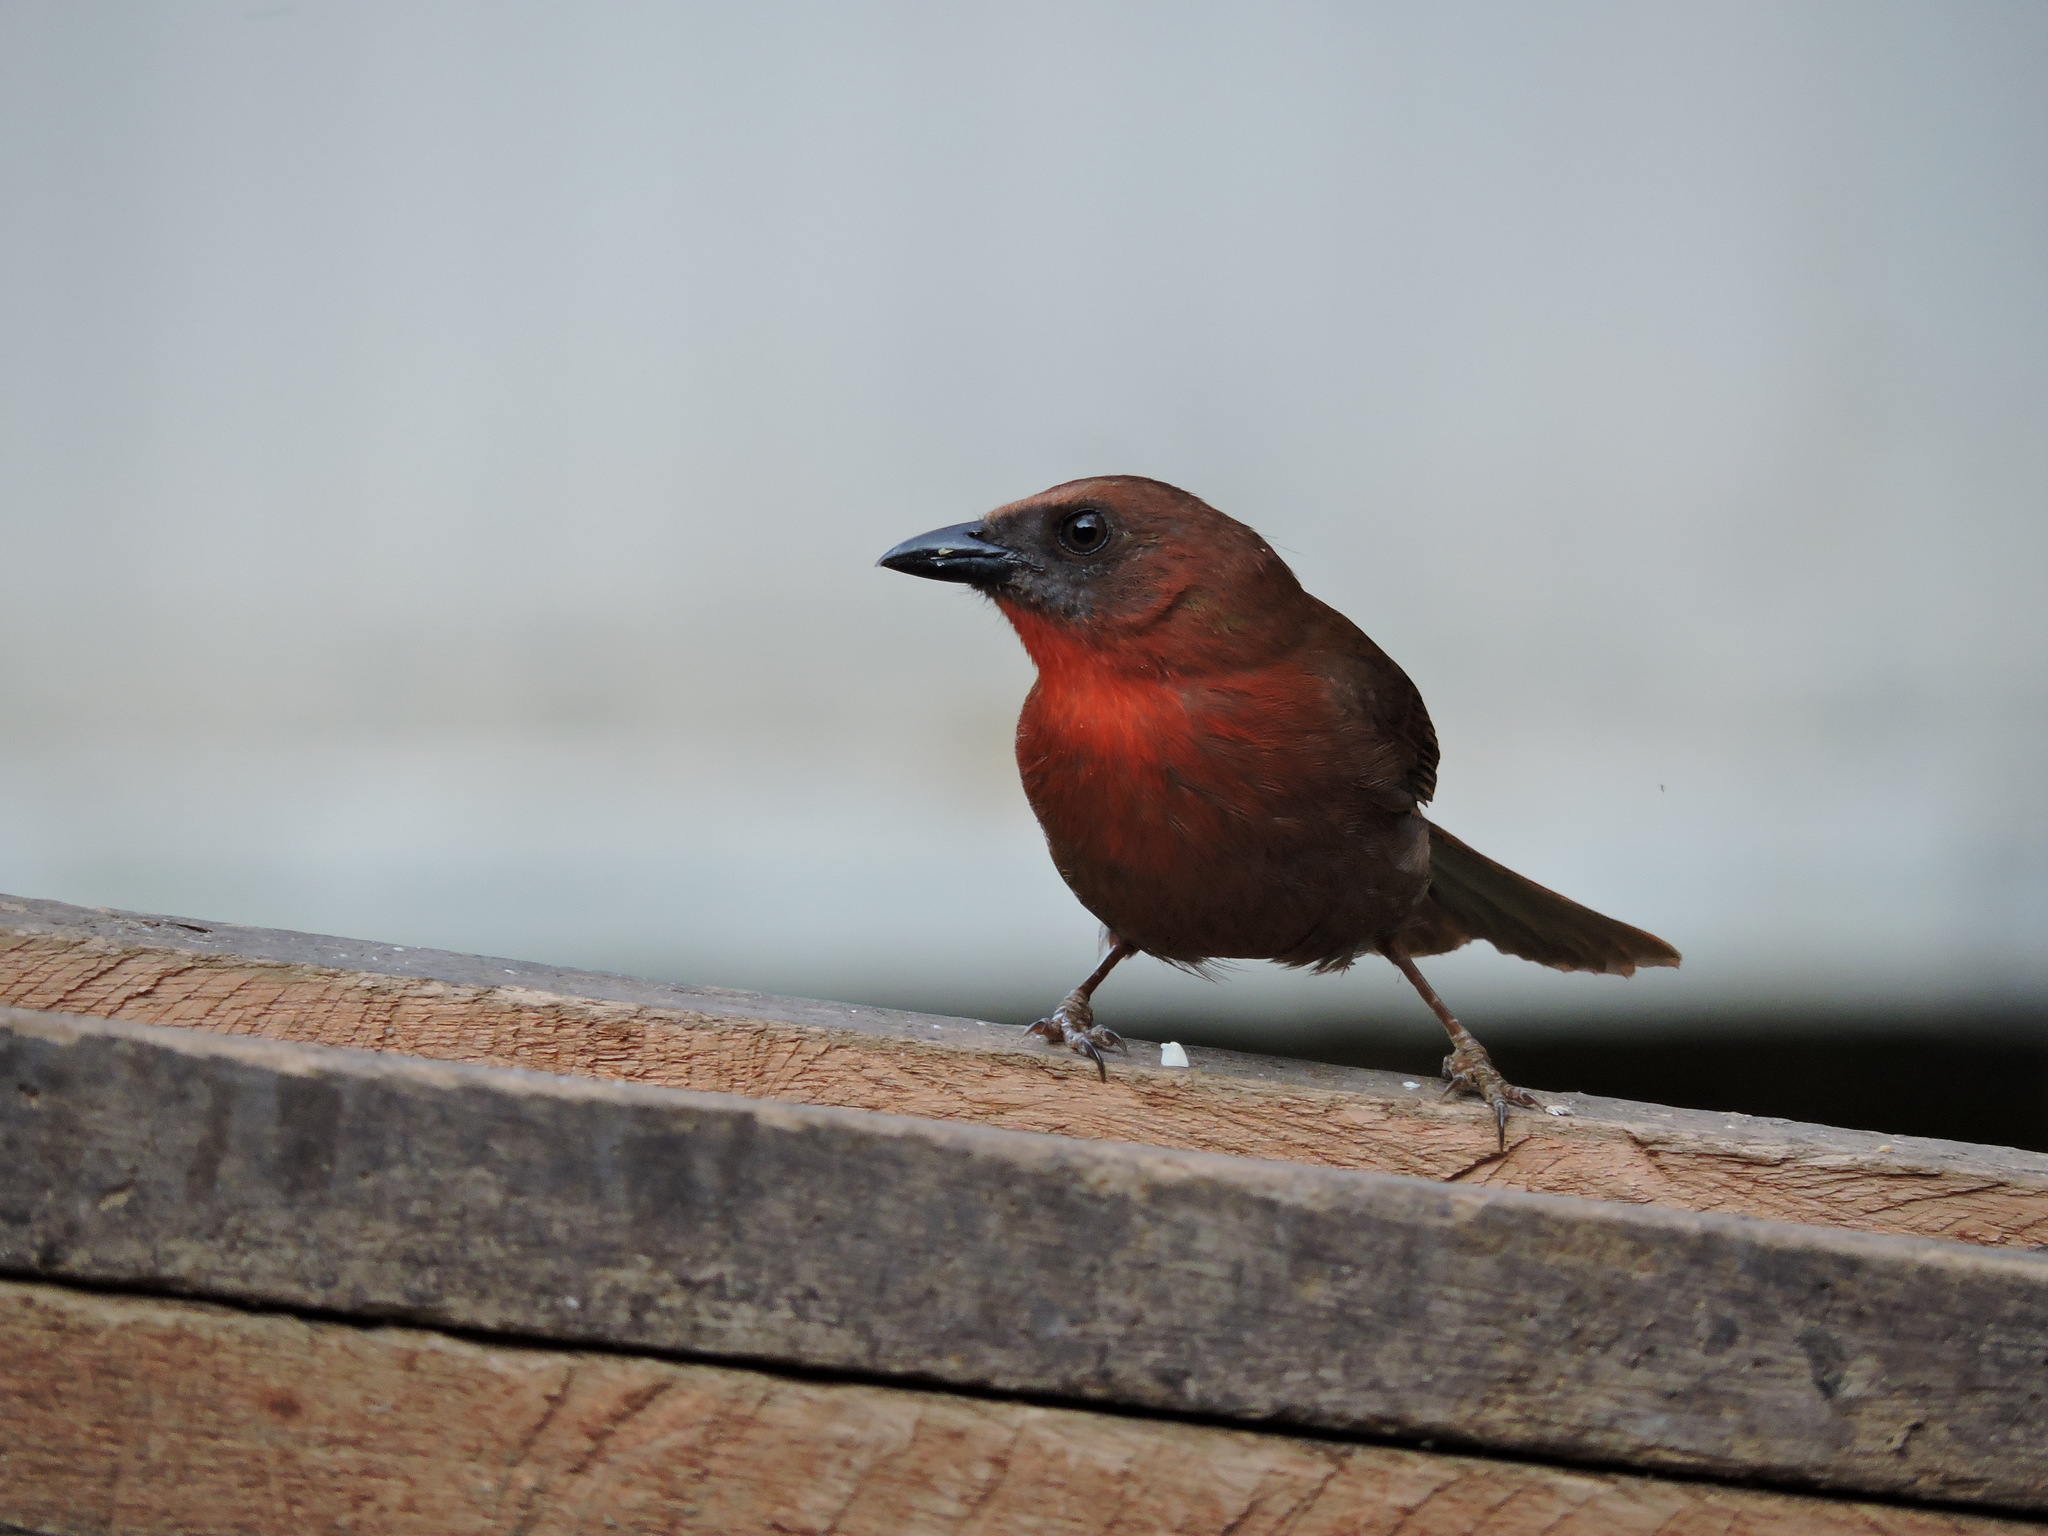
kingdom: Animalia
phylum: Chordata
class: Aves
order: Passeriformes
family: Cardinalidae
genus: Habia
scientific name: Habia fuscicauda
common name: Red-throated ant-tanager
